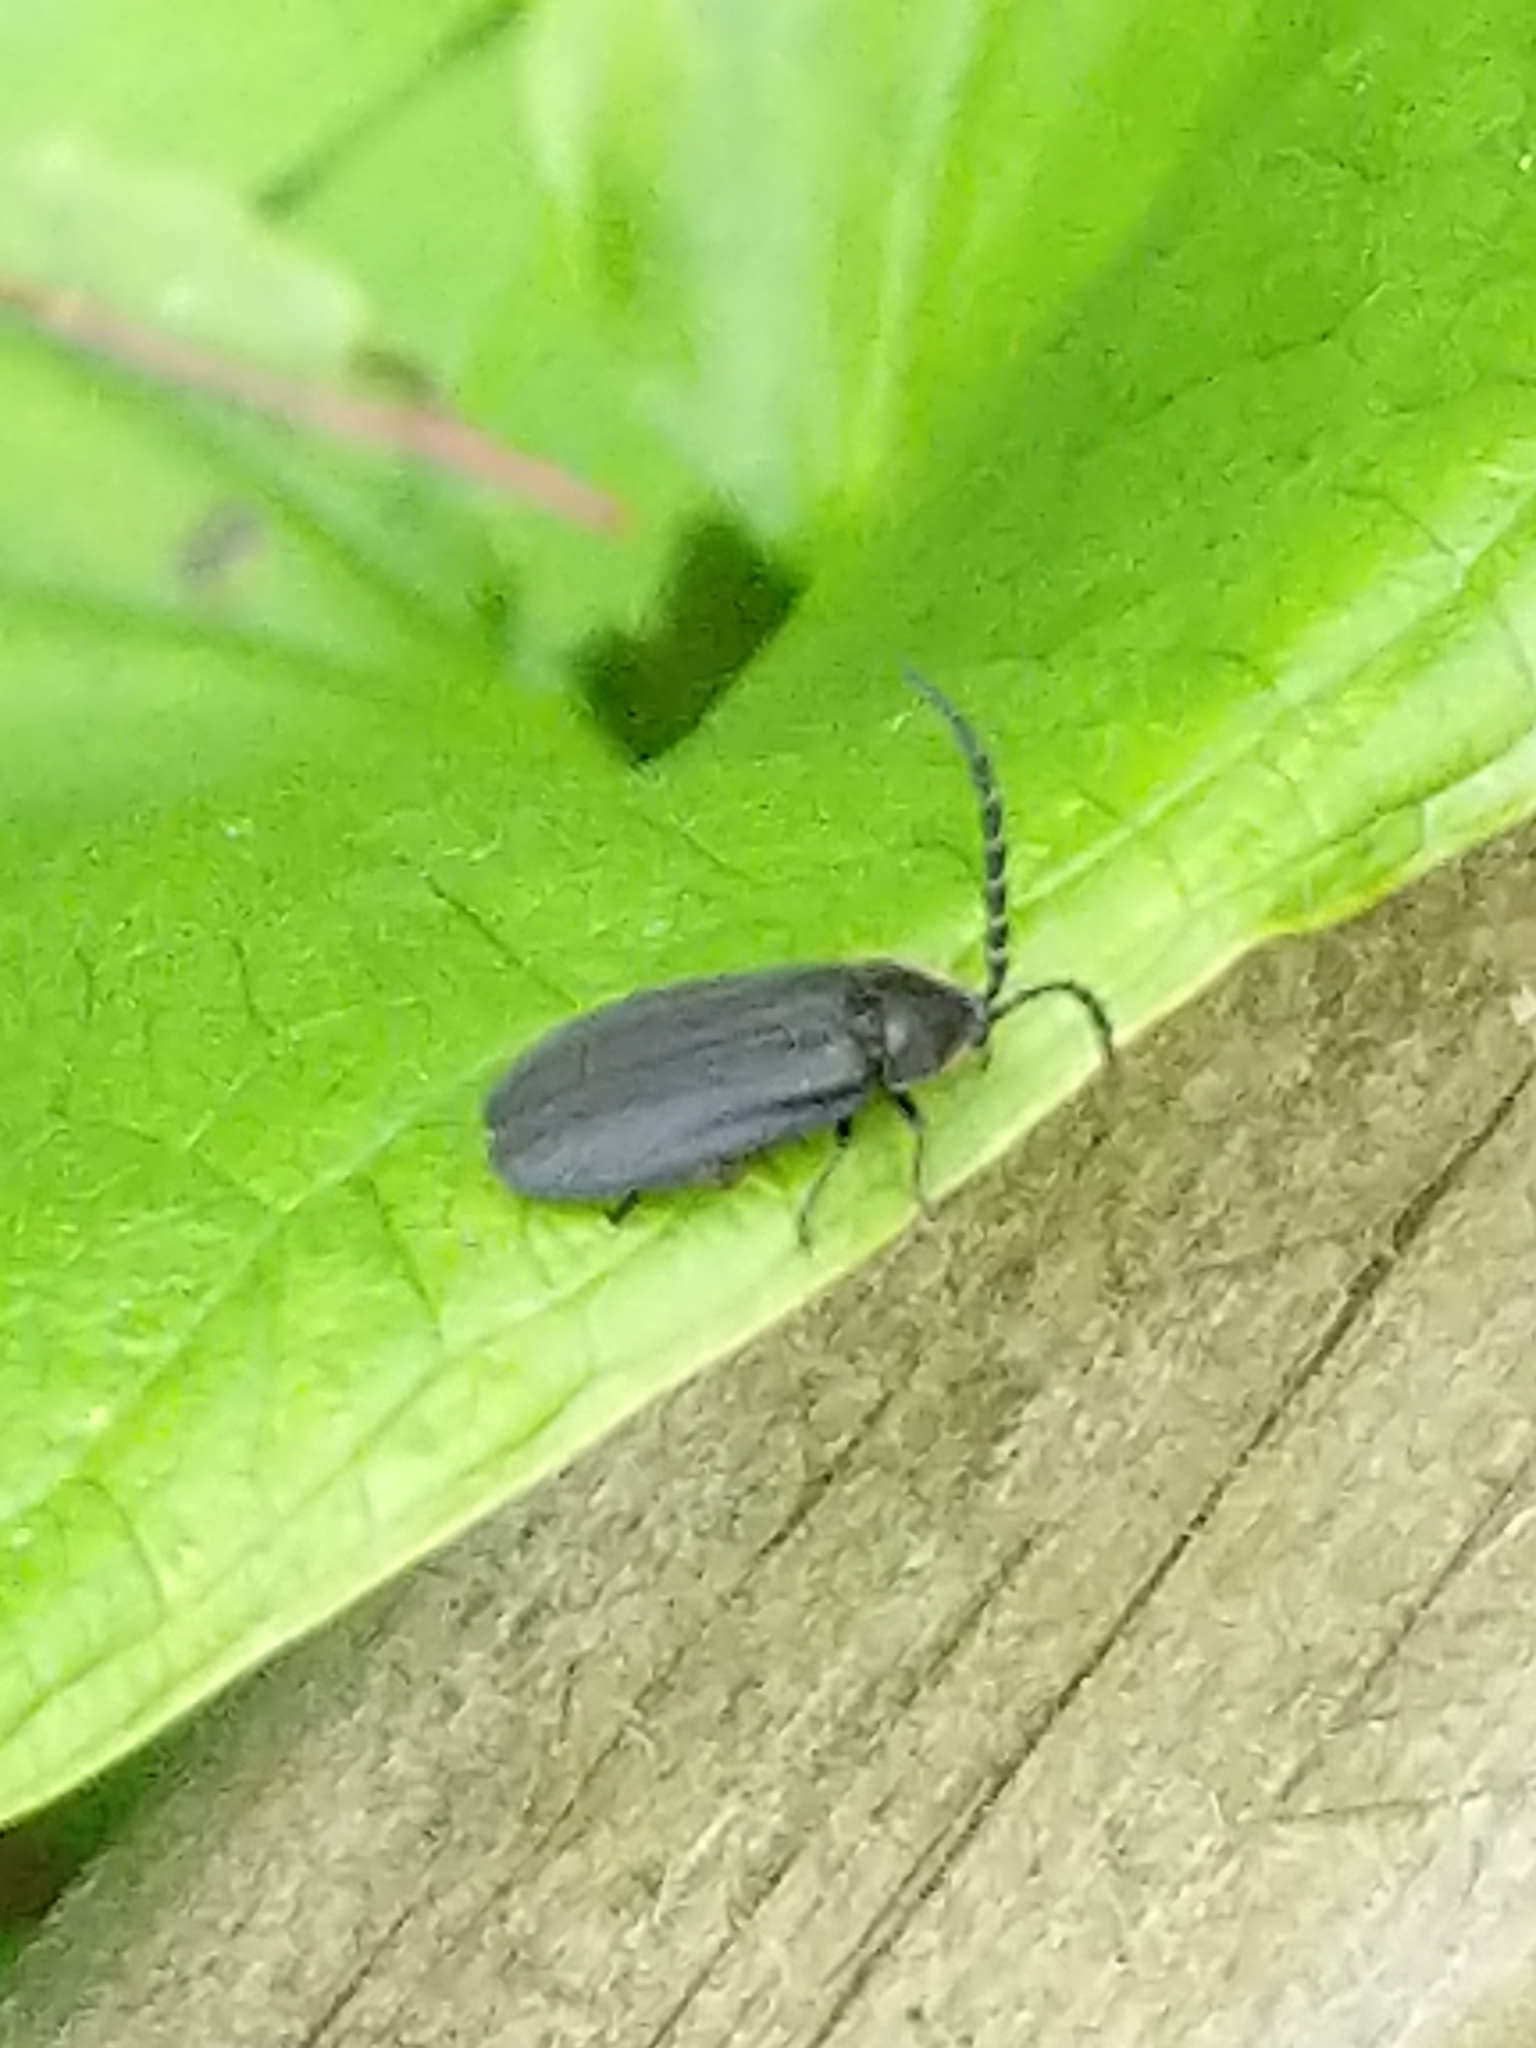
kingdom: Animalia
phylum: Arthropoda
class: Insecta
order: Coleoptera
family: Lampyridae
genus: Lucidota
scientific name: Lucidota atra
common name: Black firefly
